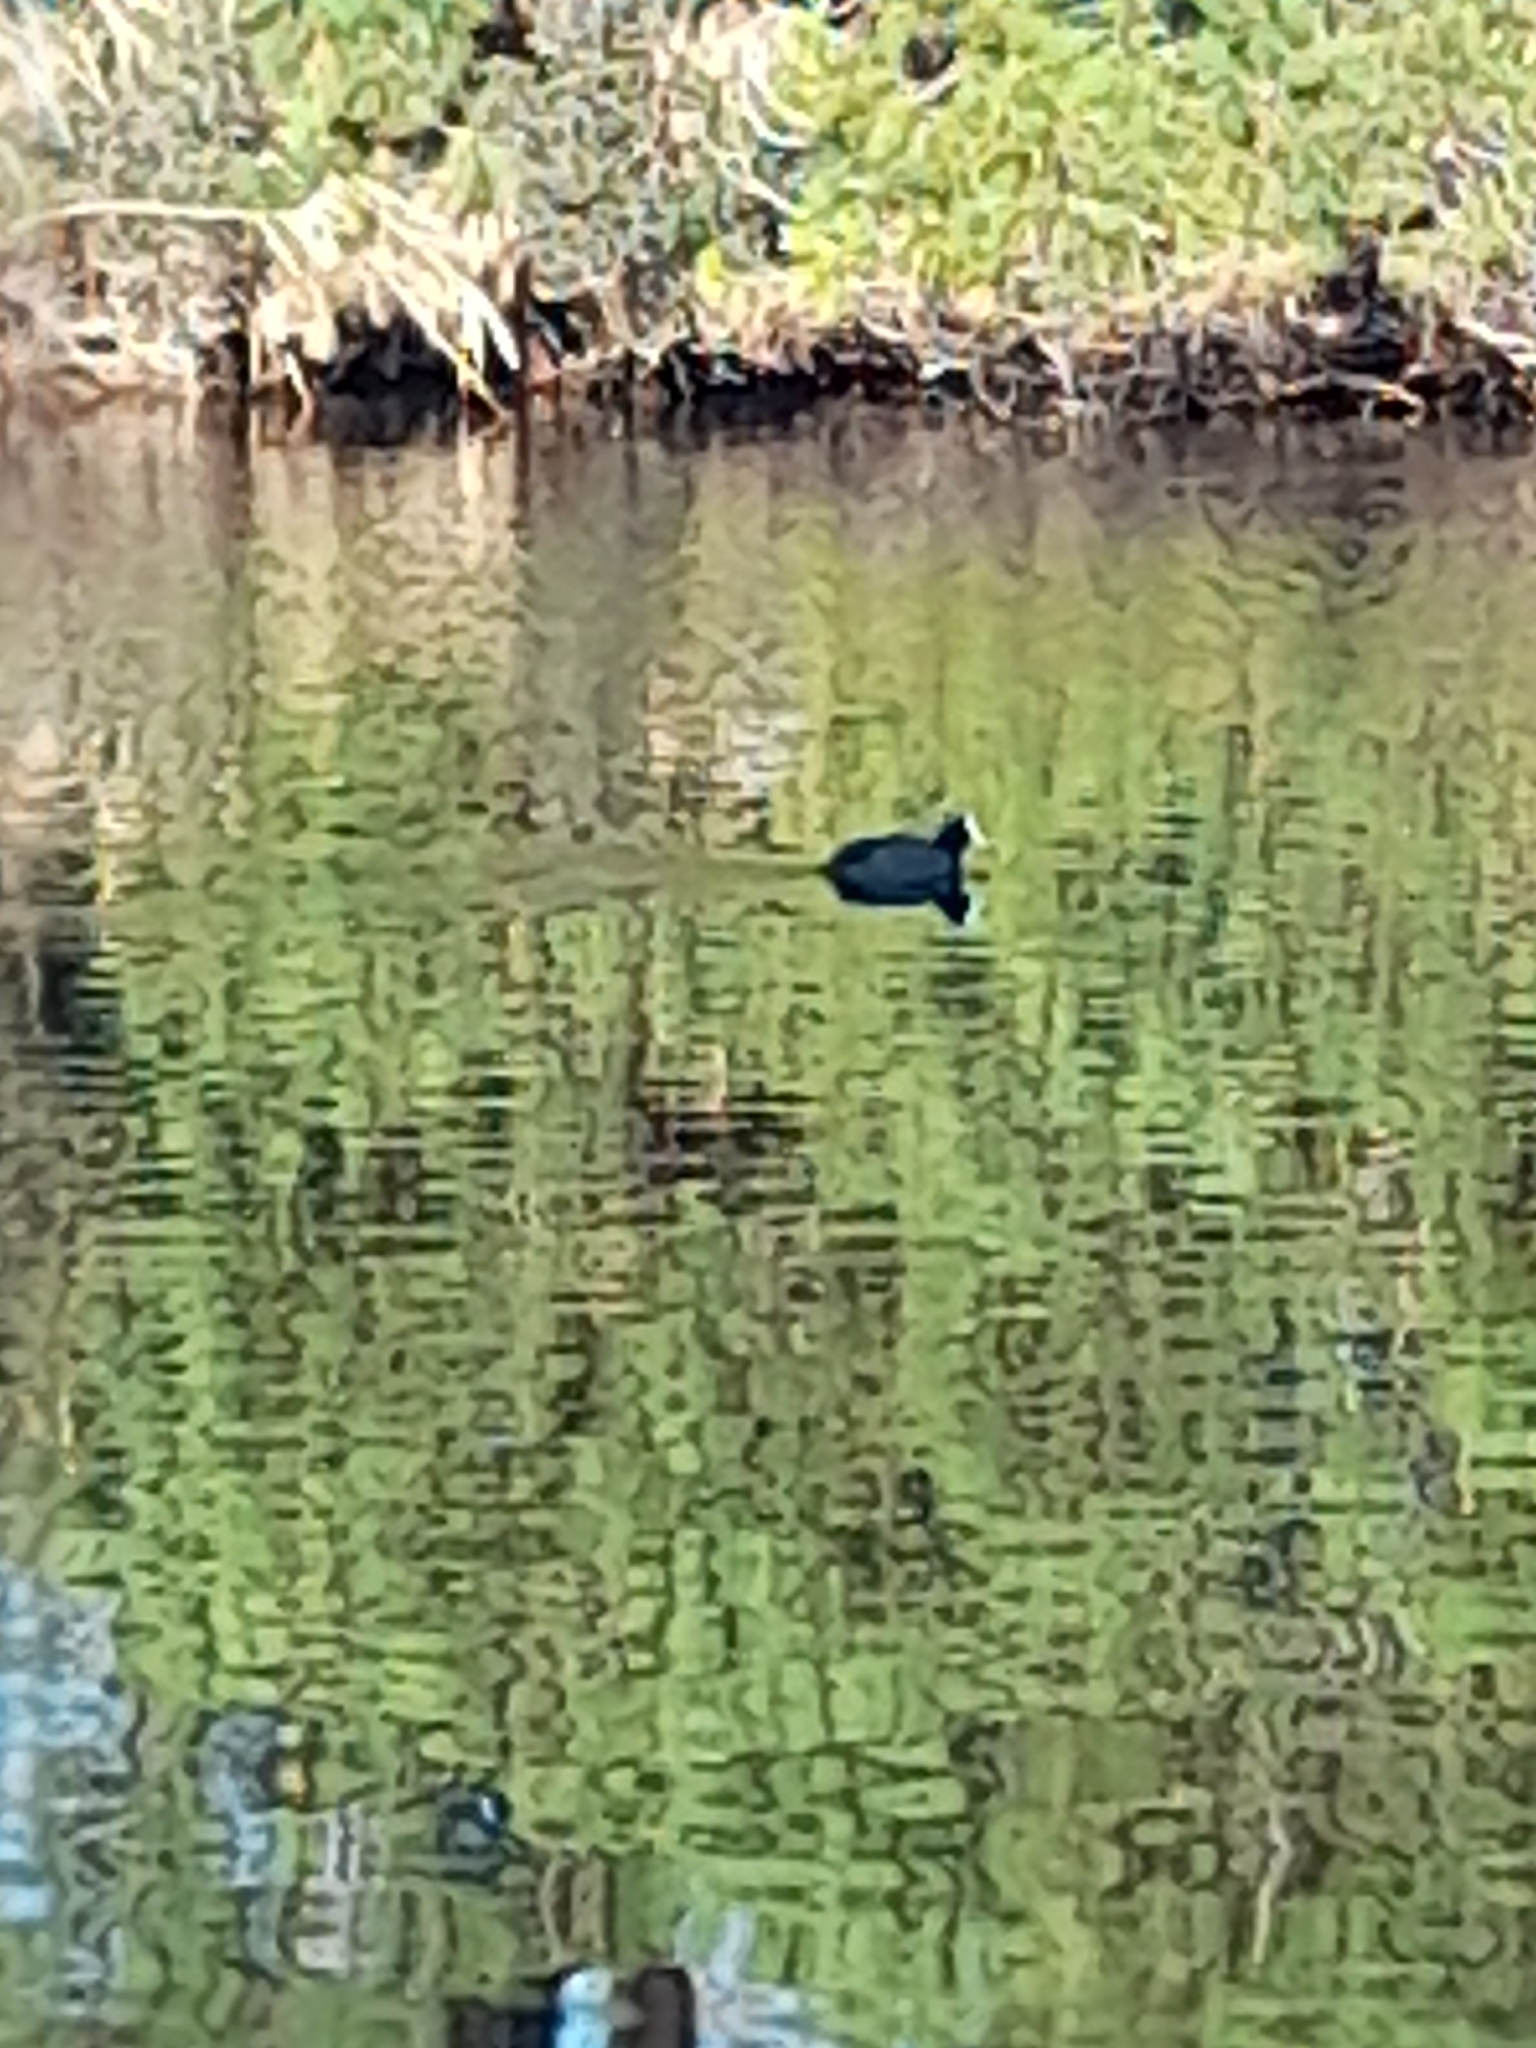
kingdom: Animalia
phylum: Chordata
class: Aves
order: Gruiformes
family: Rallidae
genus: Fulica
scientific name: Fulica atra
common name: Eurasian coot
